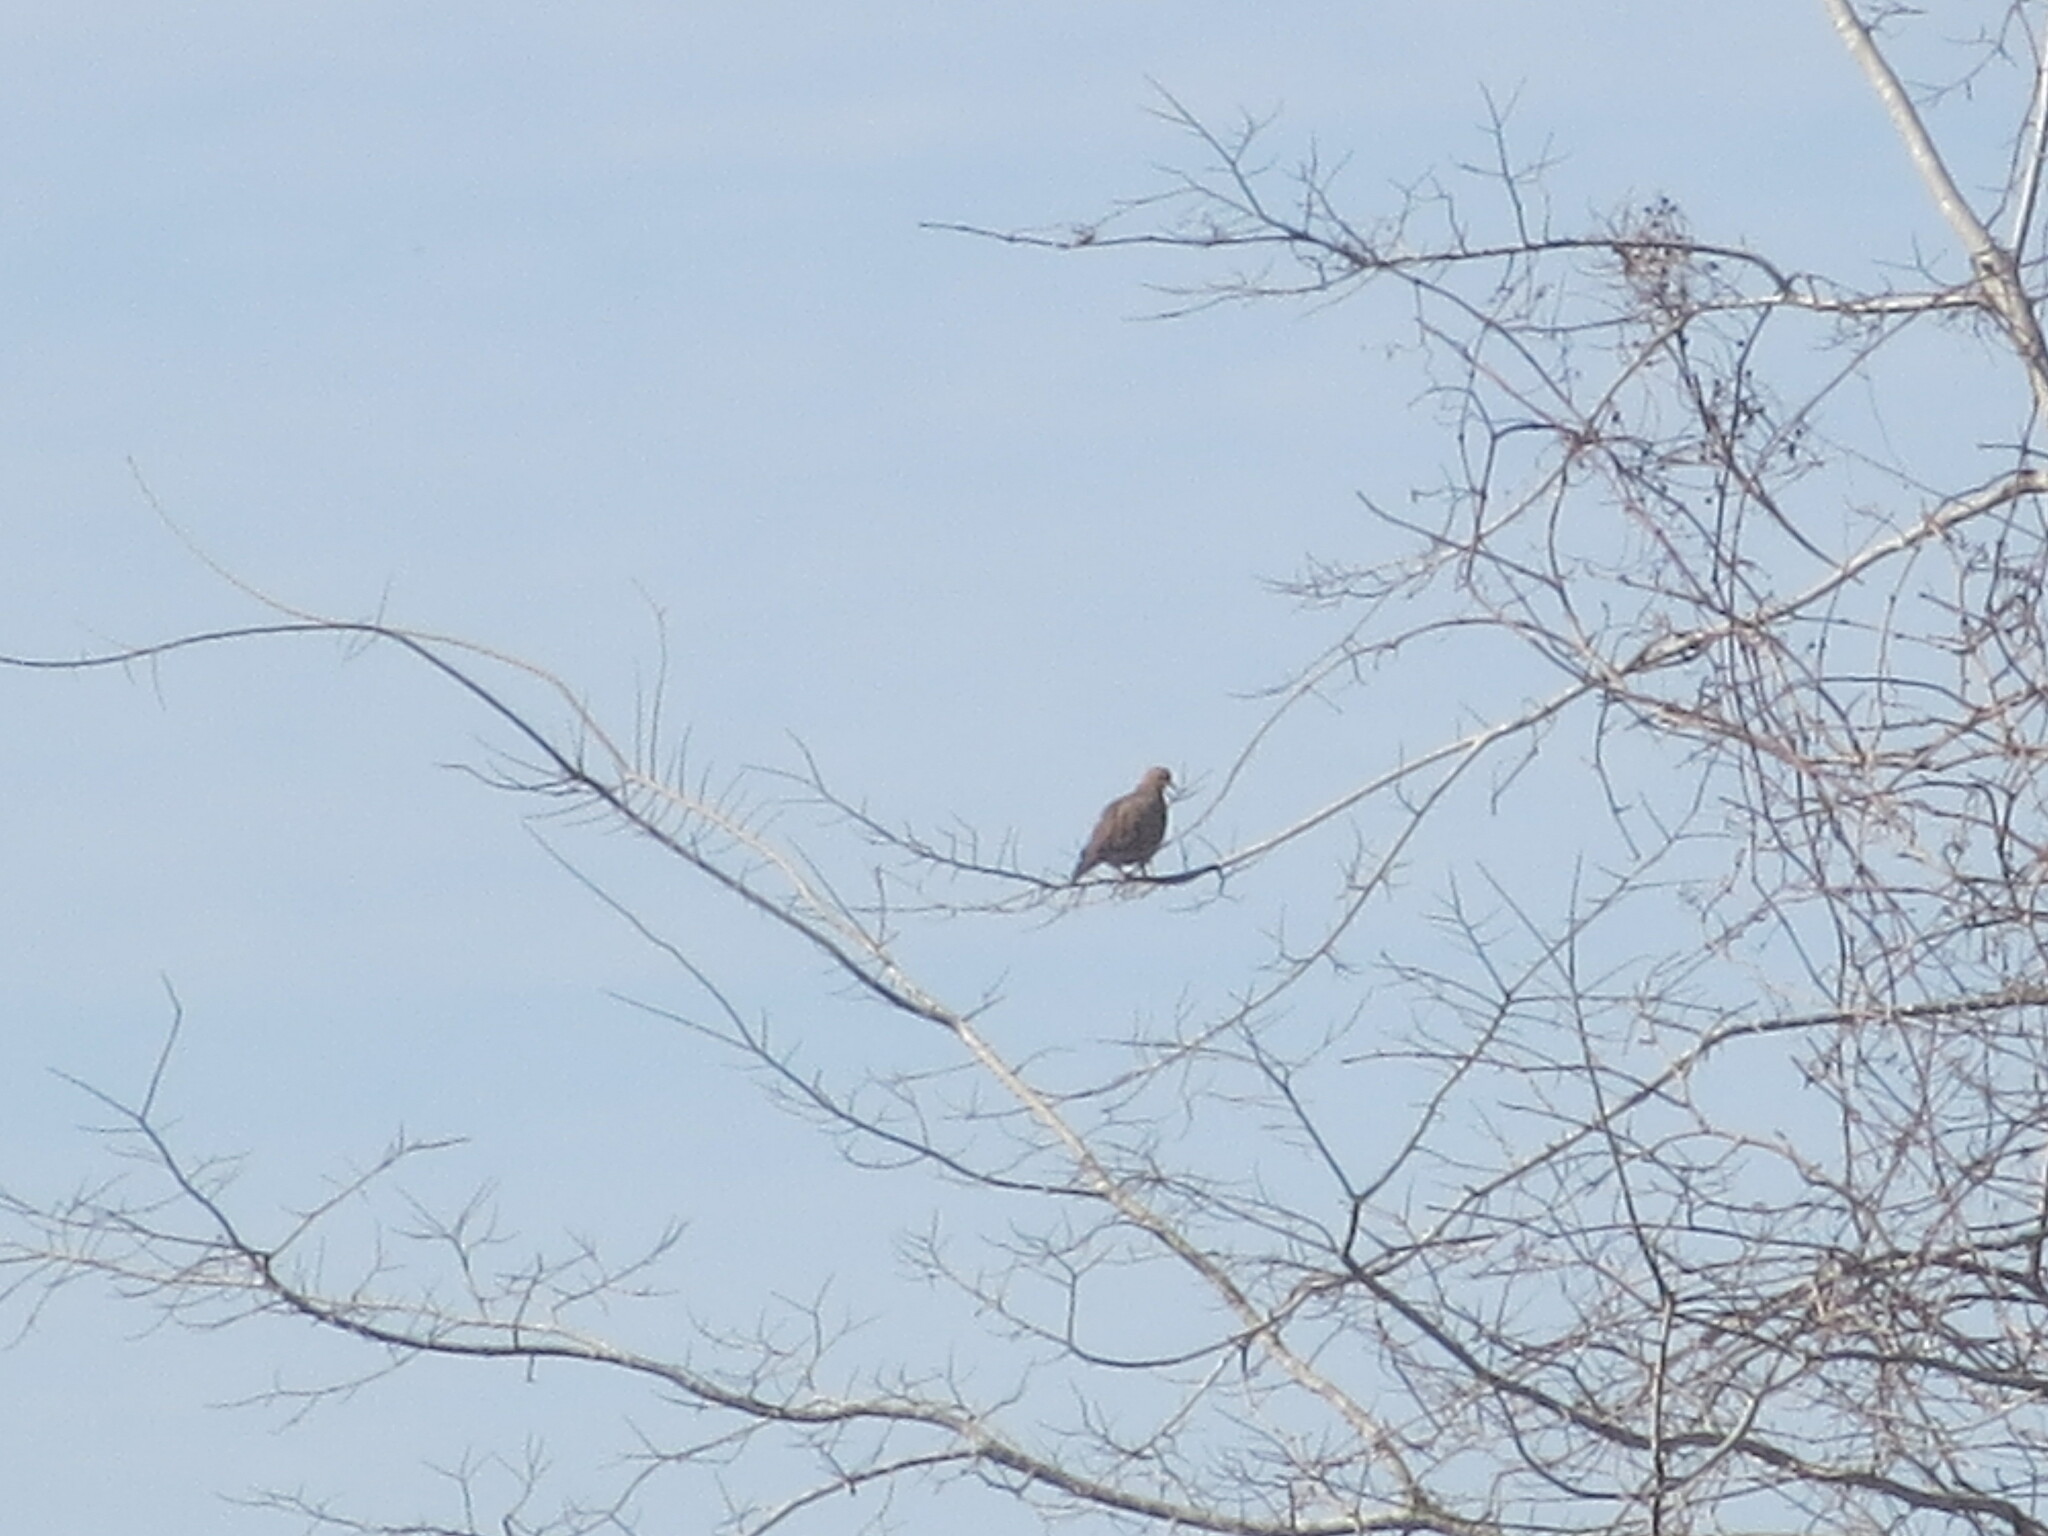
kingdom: Animalia
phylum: Chordata
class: Aves
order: Columbiformes
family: Columbidae
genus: Zenaida
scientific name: Zenaida macroura
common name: Mourning dove
